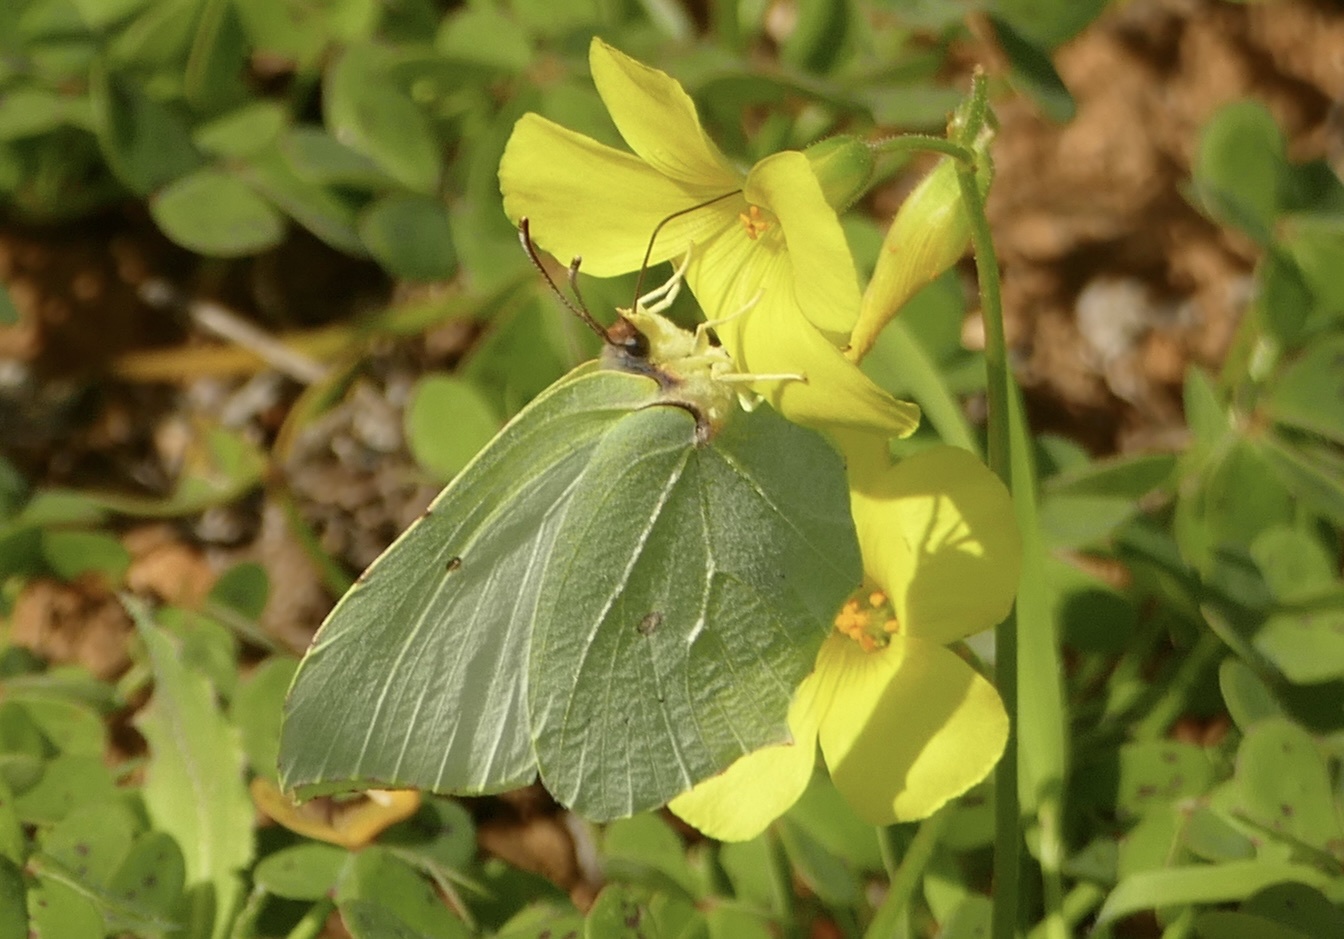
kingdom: Animalia
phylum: Arthropoda
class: Insecta
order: Lepidoptera
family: Pieridae
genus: Gonepteryx
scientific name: Gonepteryx rhamni
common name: Brimstone
